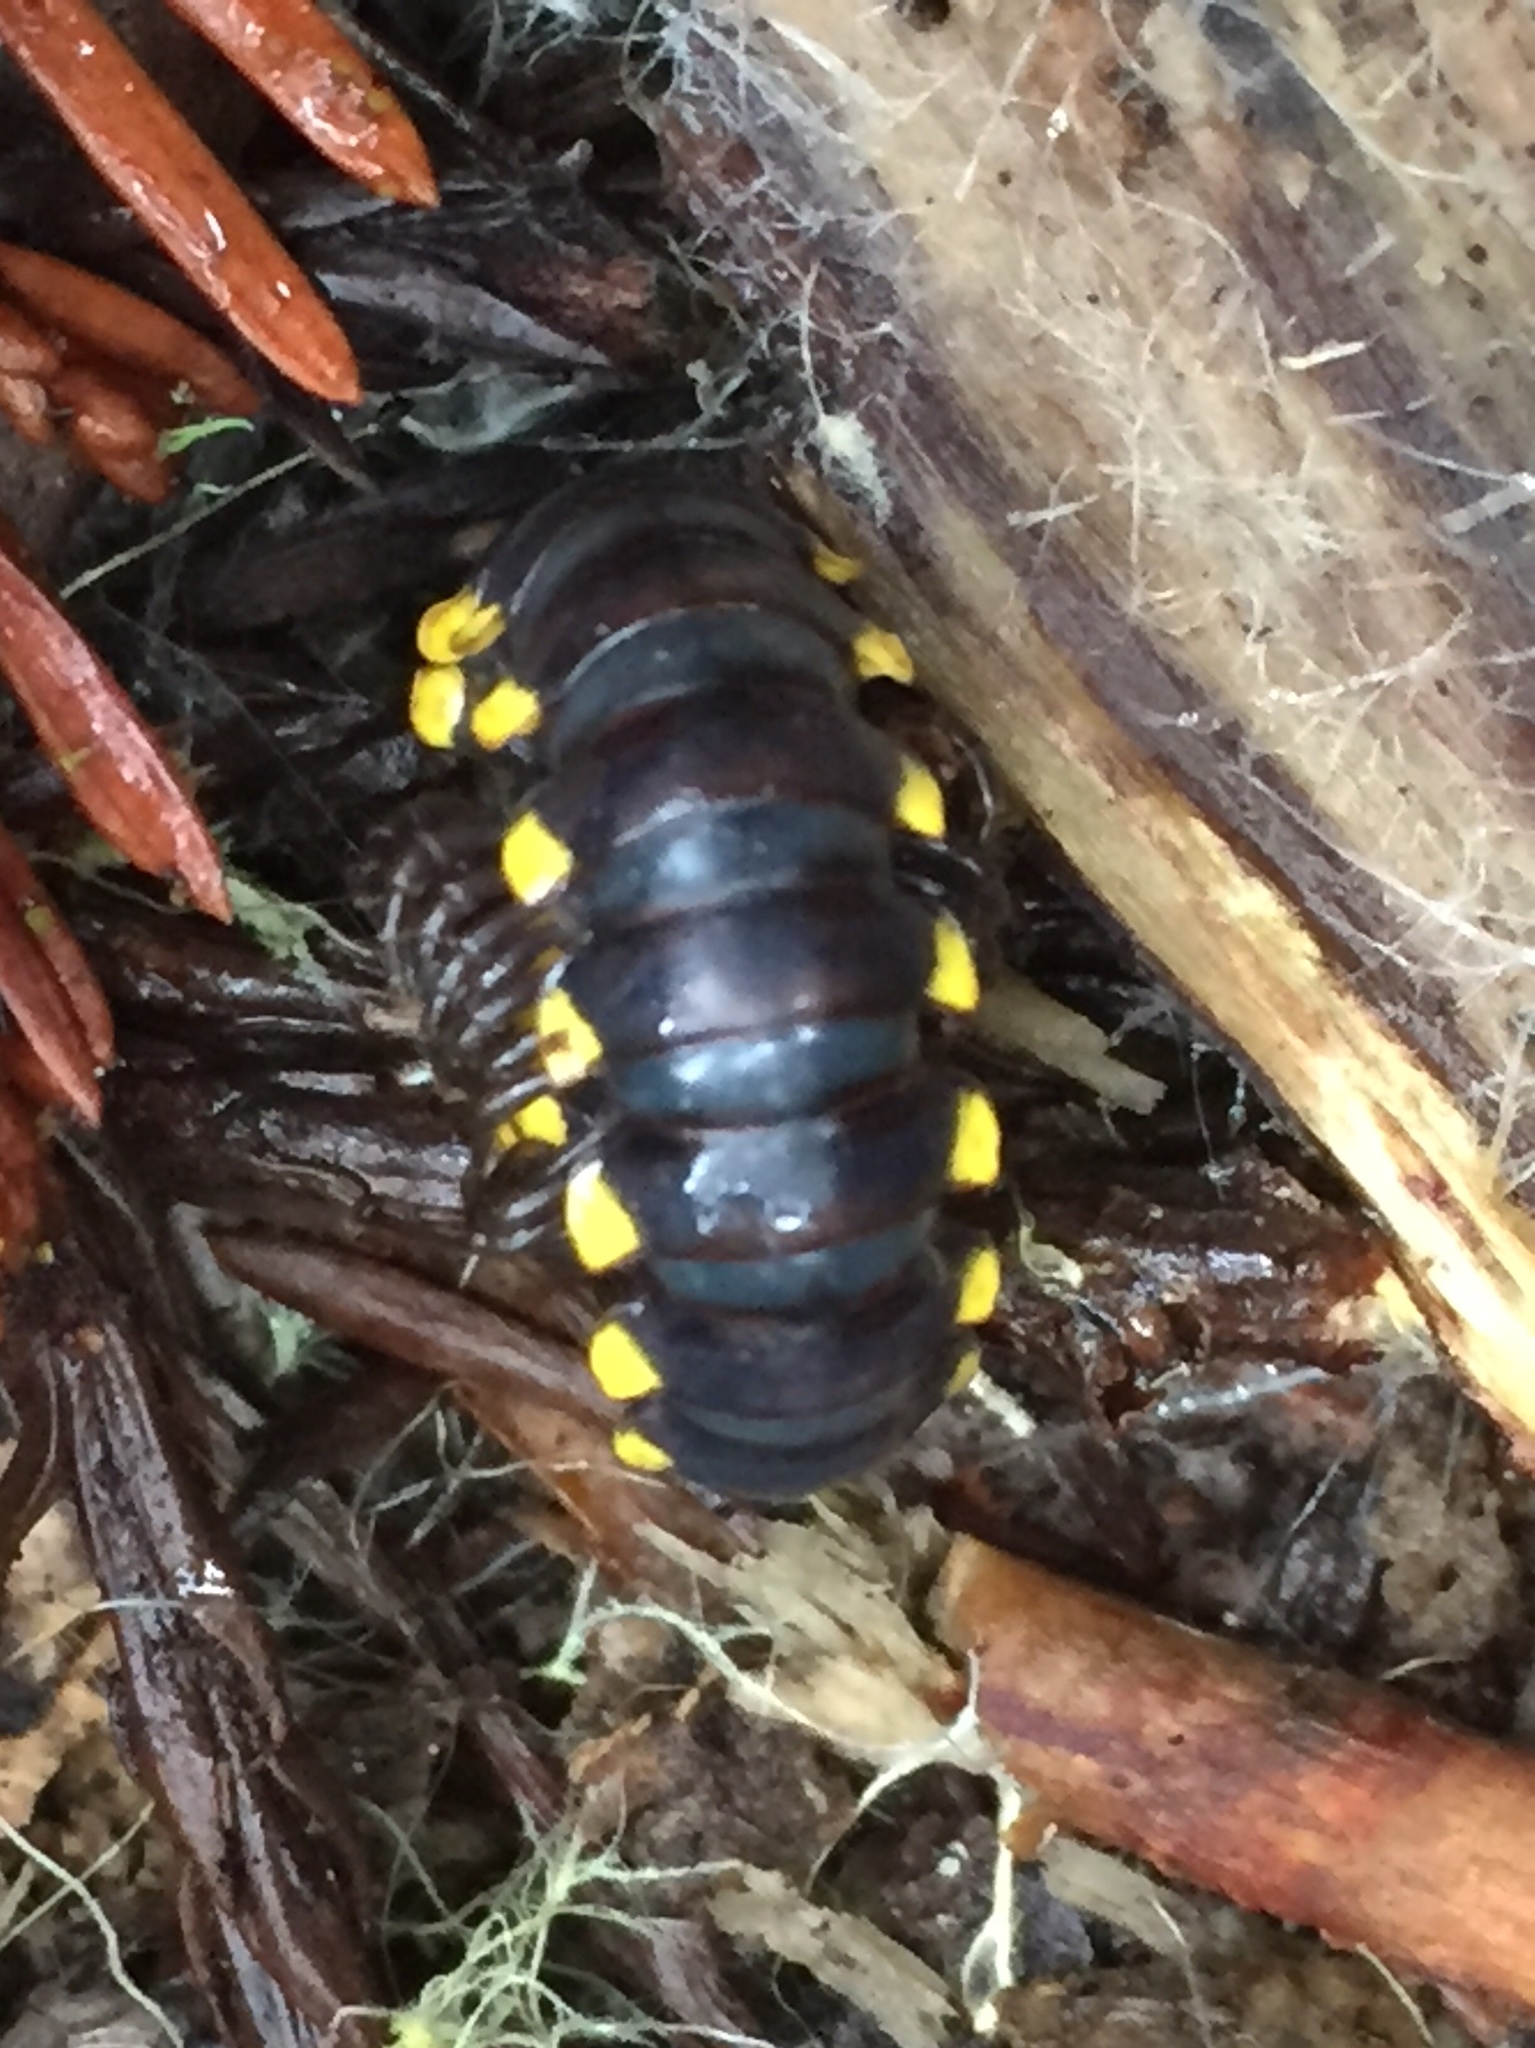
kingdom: Animalia
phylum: Arthropoda
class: Diplopoda
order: Polydesmida
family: Xystodesmidae
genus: Harpaphe
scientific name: Harpaphe haydeniana
